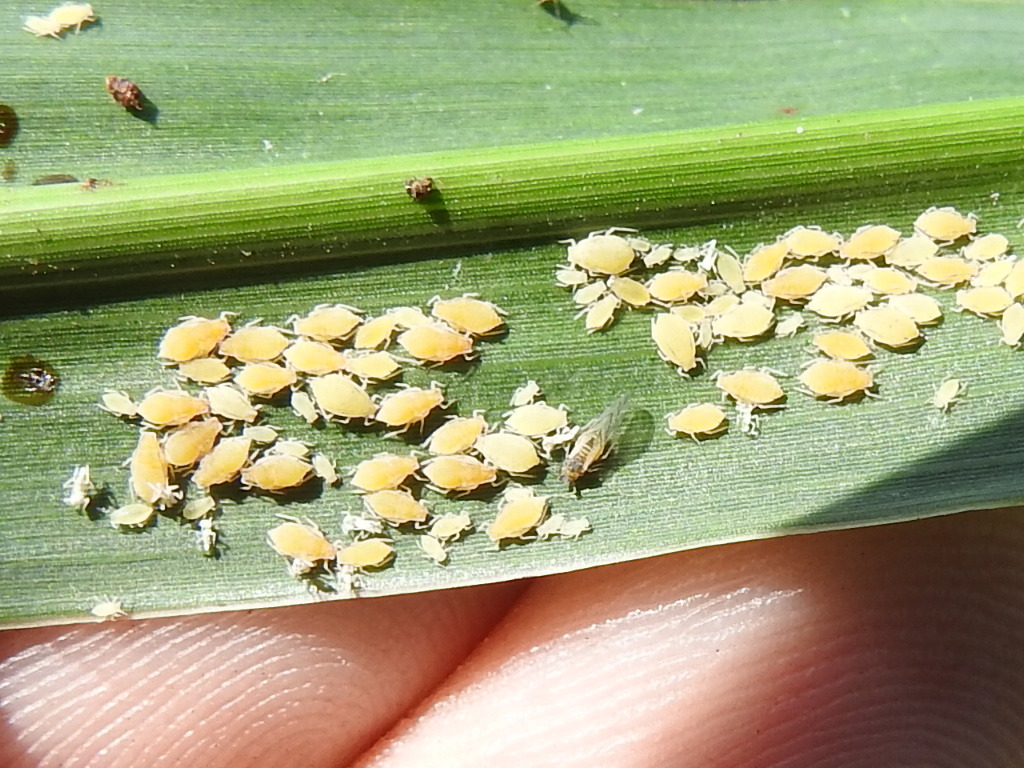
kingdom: Animalia
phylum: Arthropoda
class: Insecta
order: Hemiptera
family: Aphididae
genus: Melanaphis
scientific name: Melanaphis sacchari
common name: Sugarcane aphid
